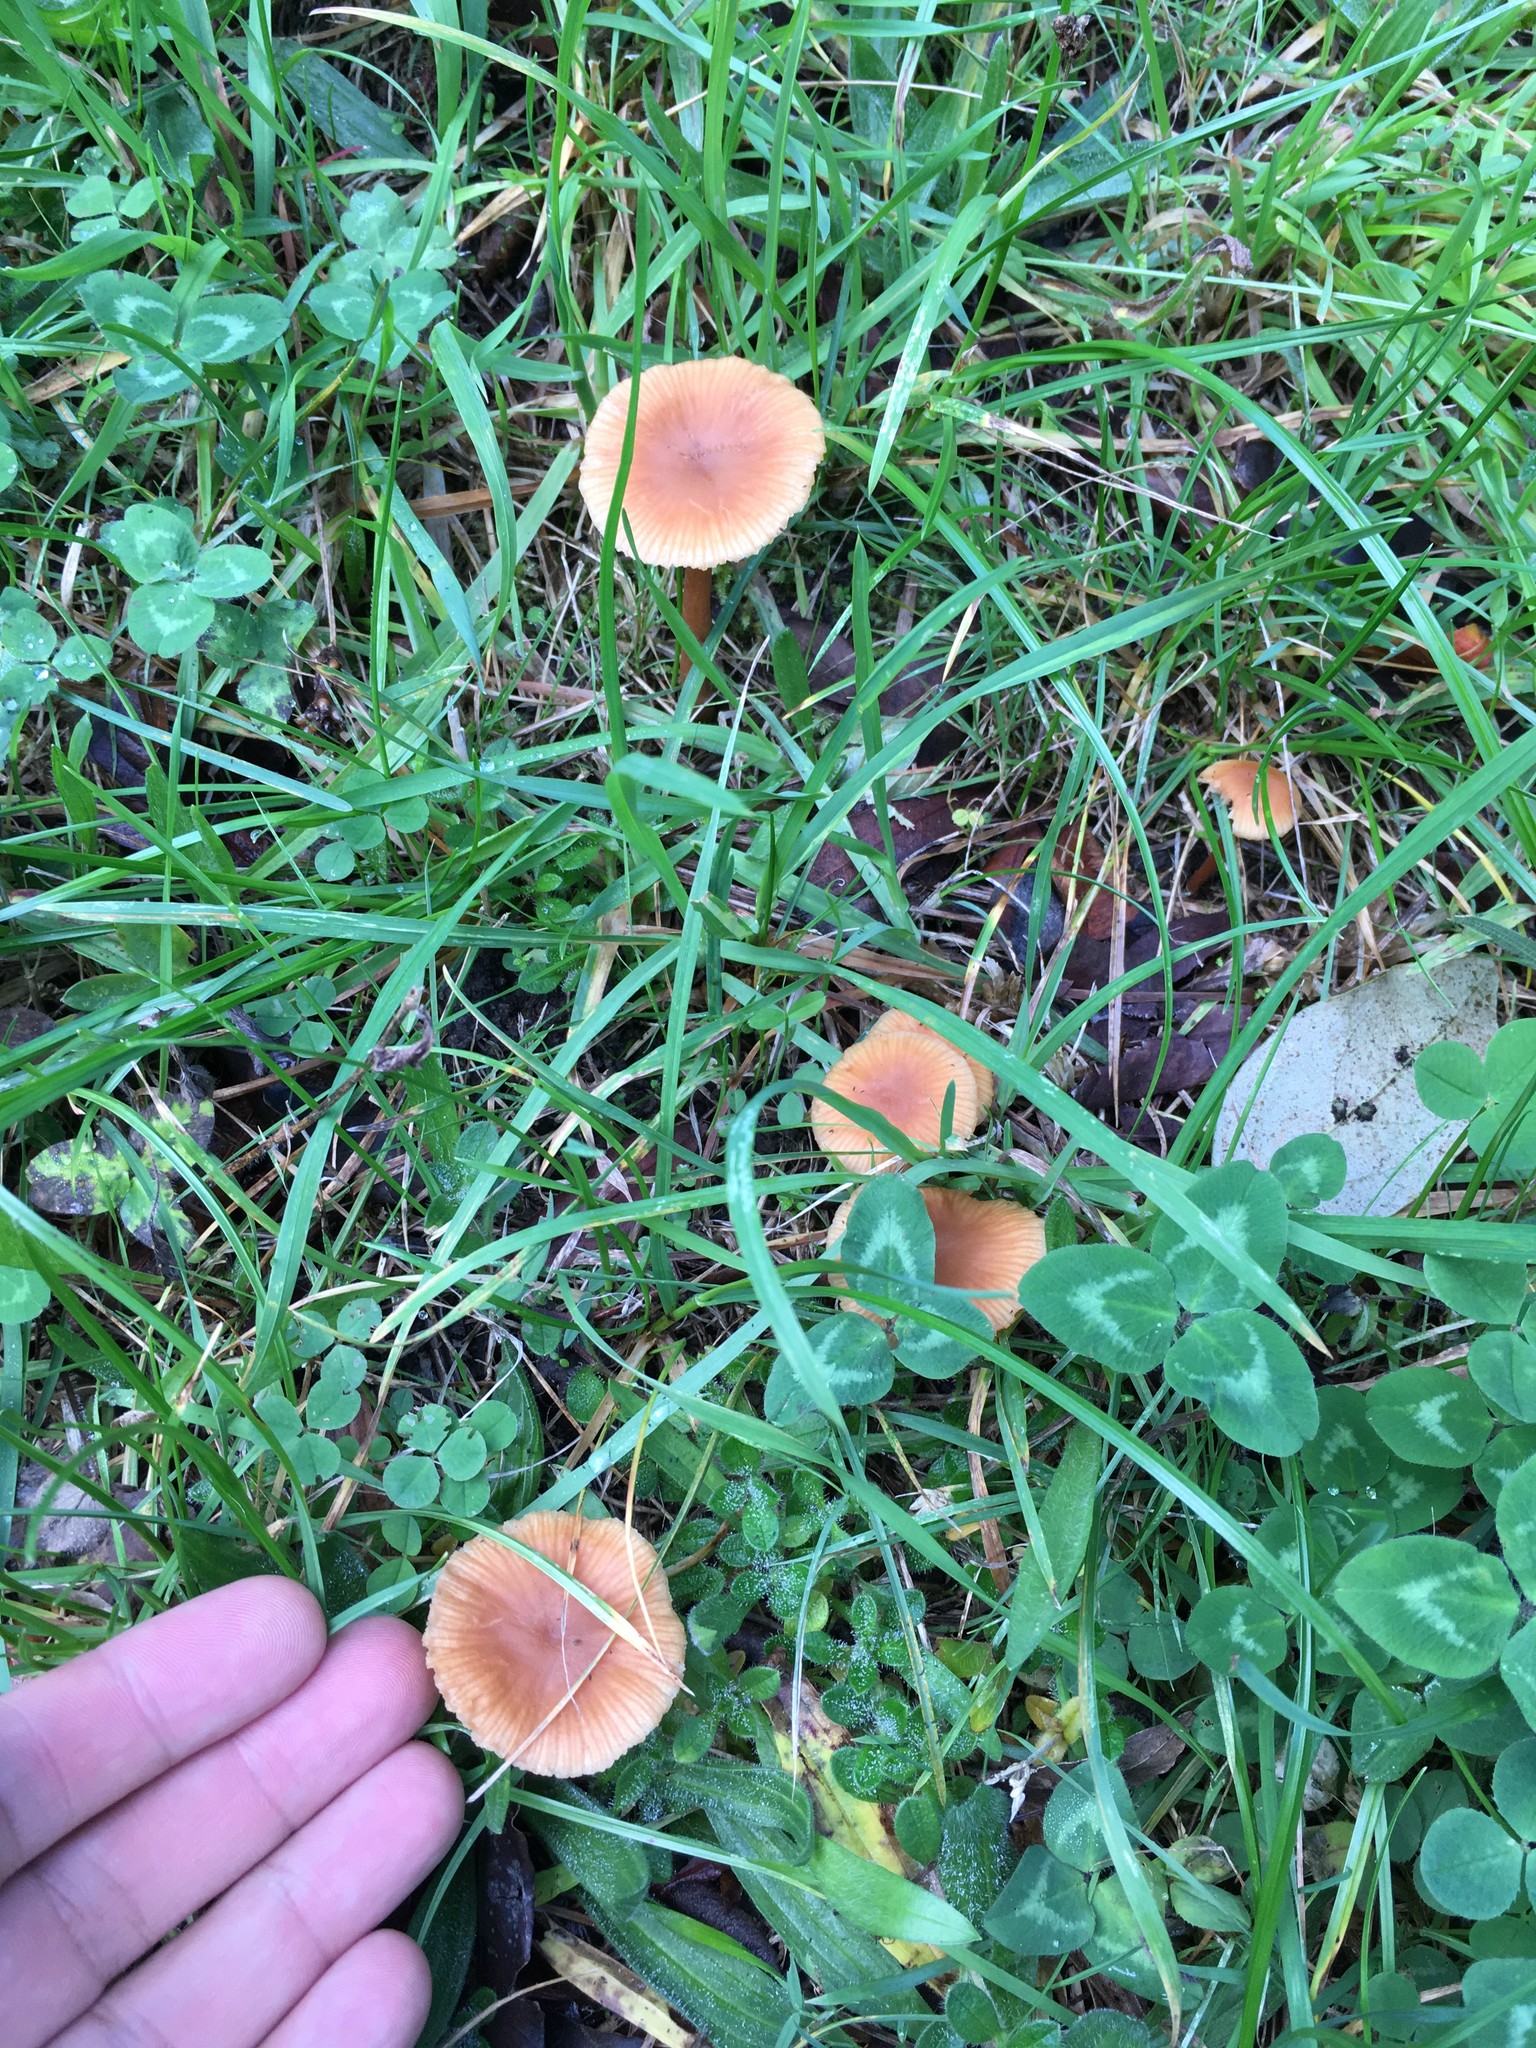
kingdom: Fungi
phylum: Basidiomycota
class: Agaricomycetes
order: Agaricales
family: Hydnangiaceae
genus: Laccaria
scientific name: Laccaria
